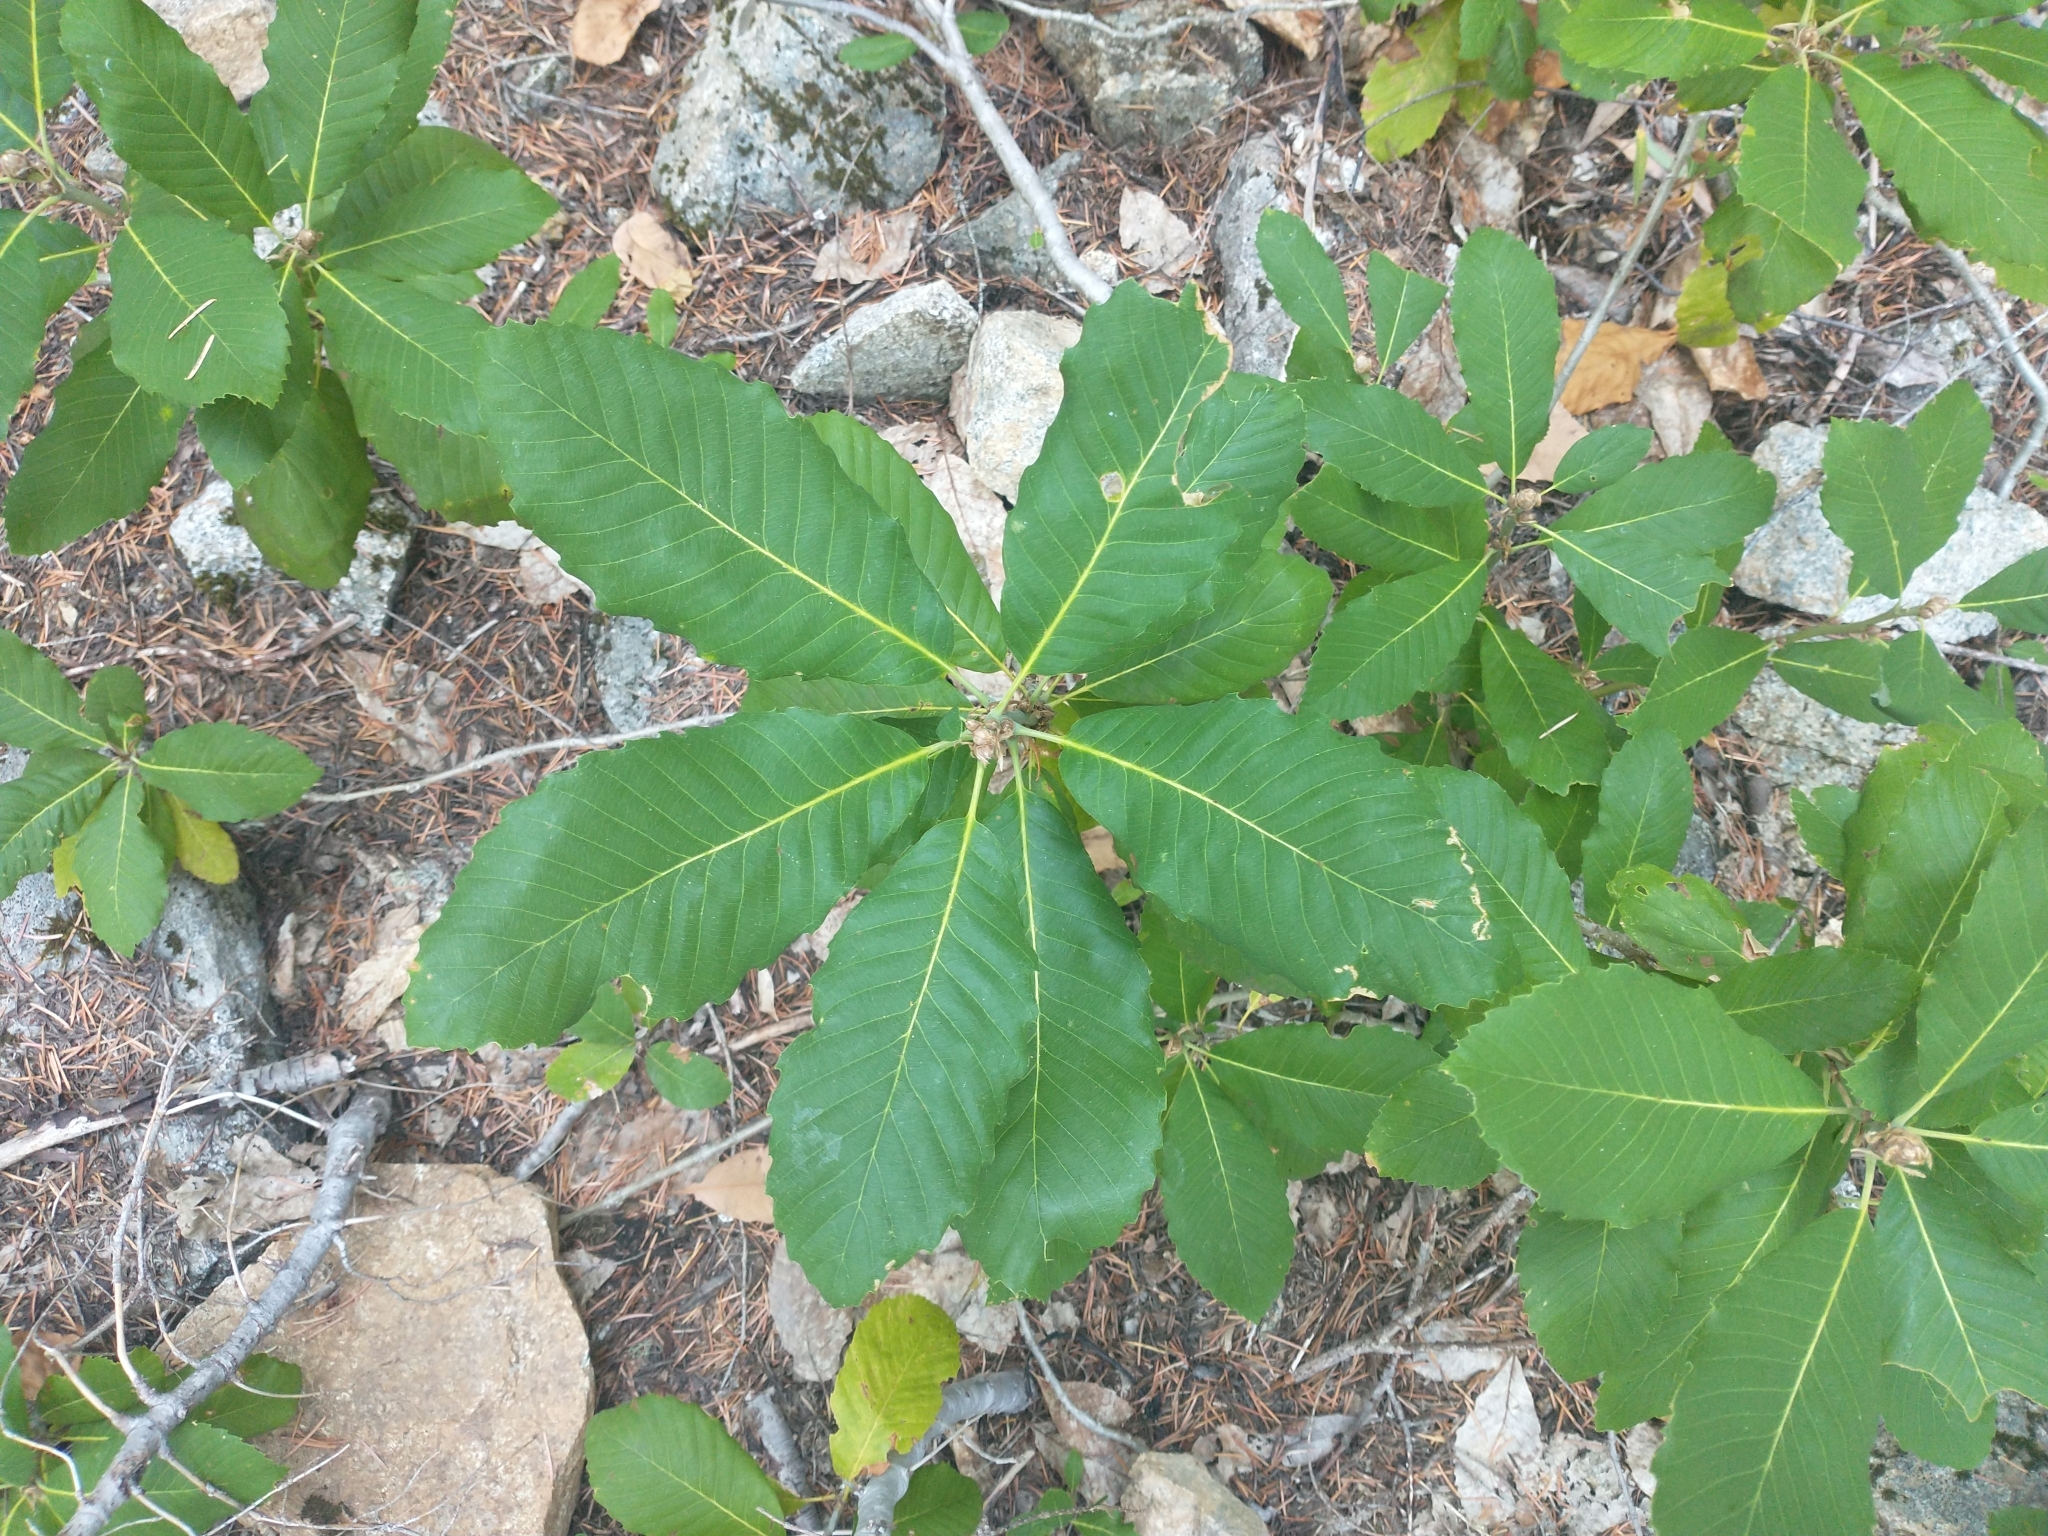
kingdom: Plantae
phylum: Tracheophyta
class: Magnoliopsida
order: Fagales
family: Fagaceae
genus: Quercus
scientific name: Quercus sadleriana
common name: Deer oak
